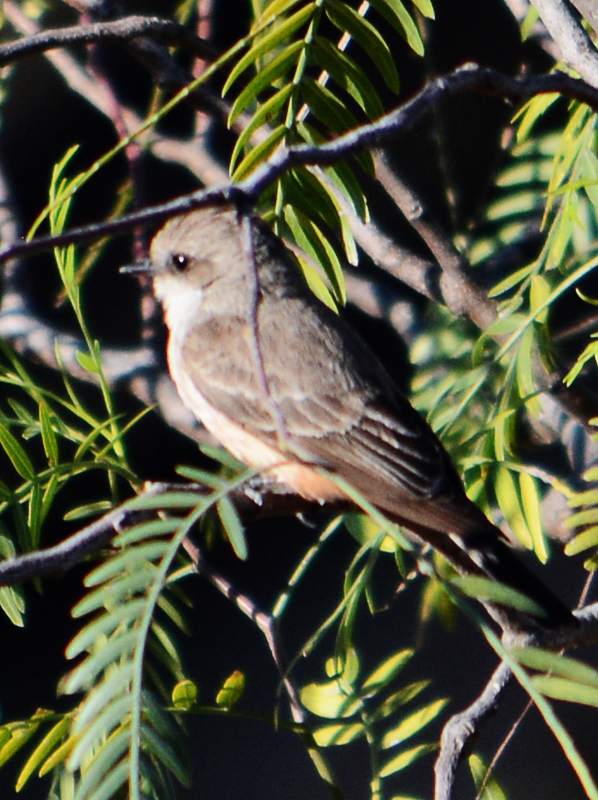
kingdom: Animalia
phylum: Chordata
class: Aves
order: Passeriformes
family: Tyrannidae
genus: Pyrocephalus
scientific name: Pyrocephalus rubinus
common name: Vermilion flycatcher
